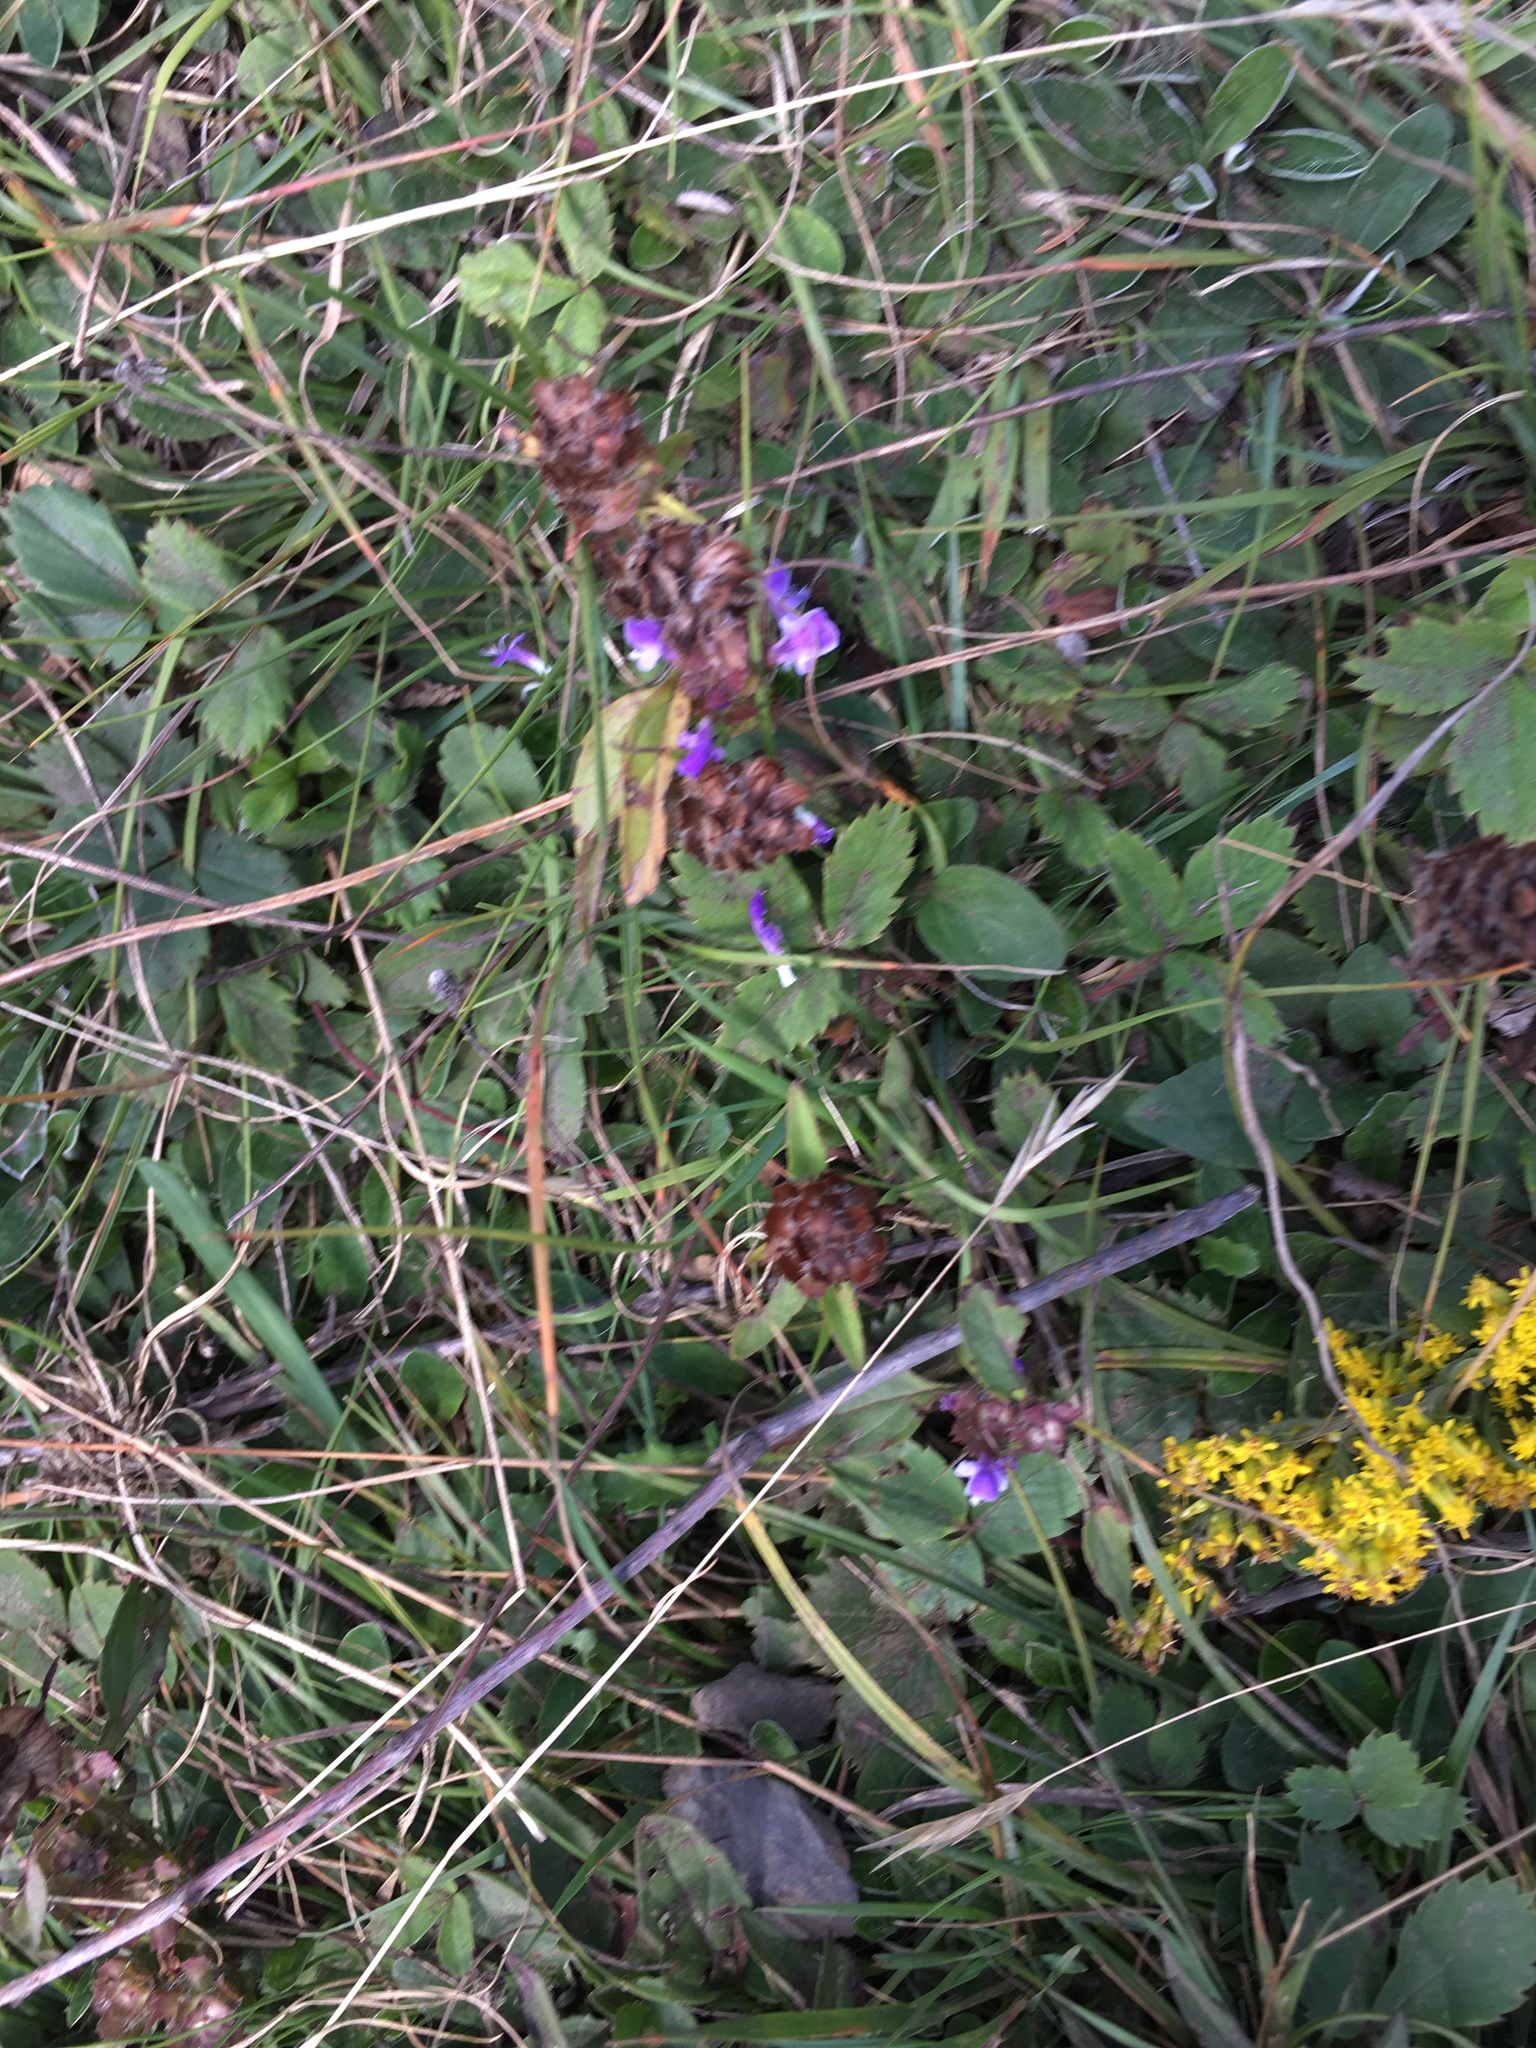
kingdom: Plantae
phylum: Tracheophyta
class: Magnoliopsida
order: Lamiales
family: Lamiaceae
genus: Prunella
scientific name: Prunella vulgaris
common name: Heal-all
